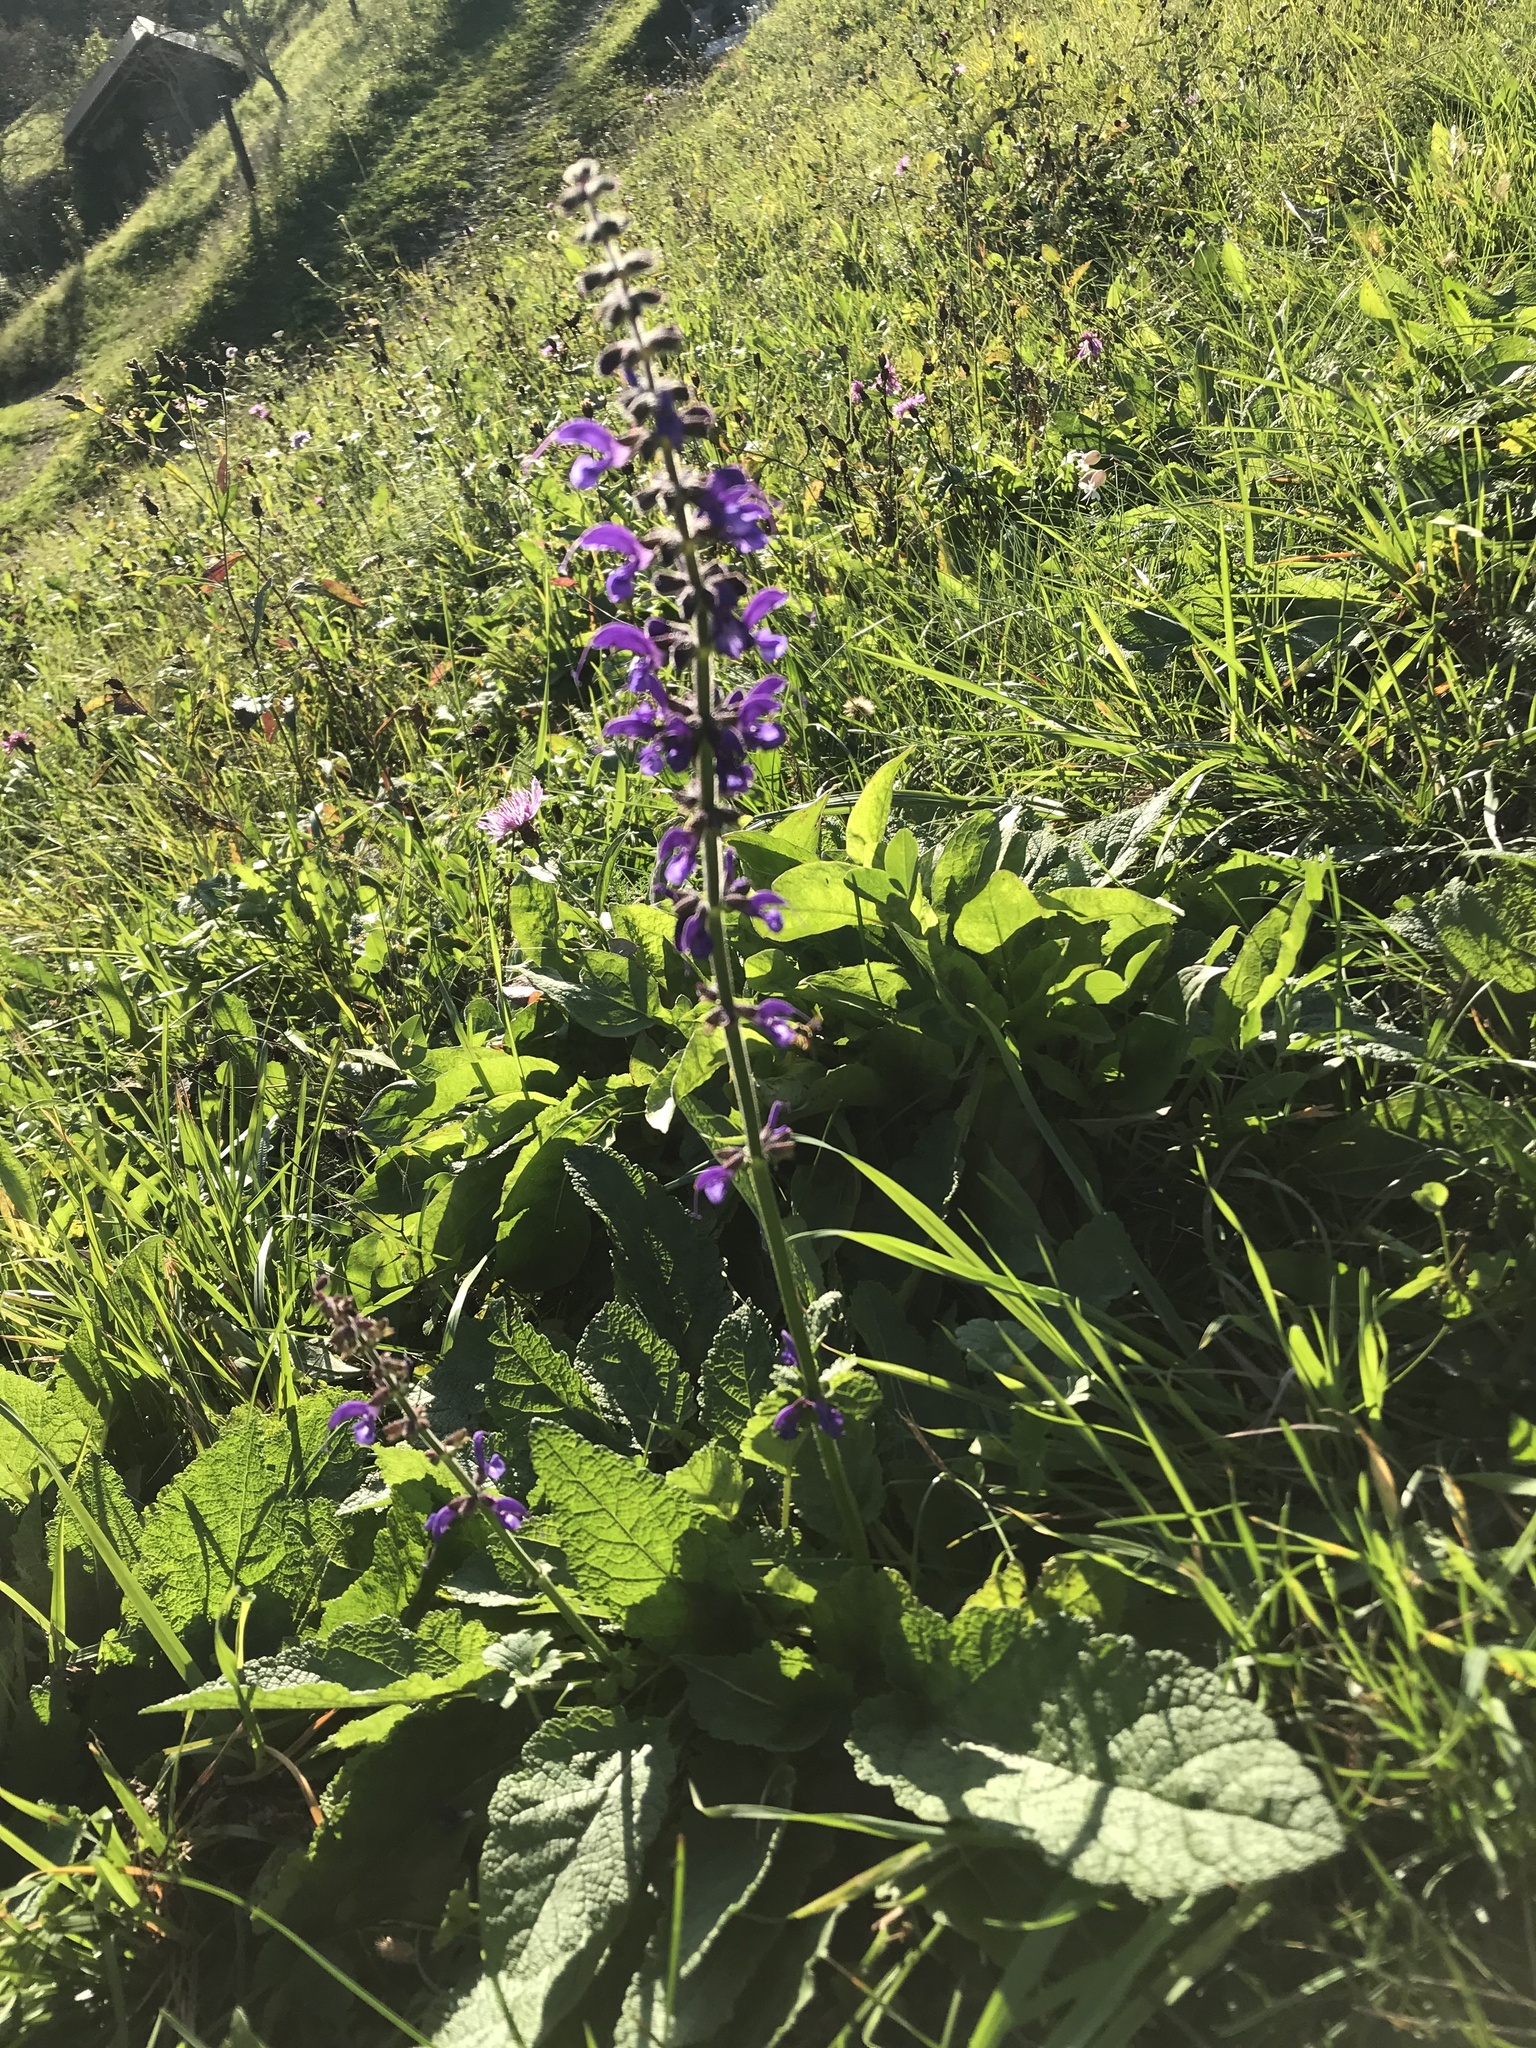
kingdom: Plantae
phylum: Tracheophyta
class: Magnoliopsida
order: Lamiales
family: Lamiaceae
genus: Salvia
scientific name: Salvia pratensis
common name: Meadow sage
